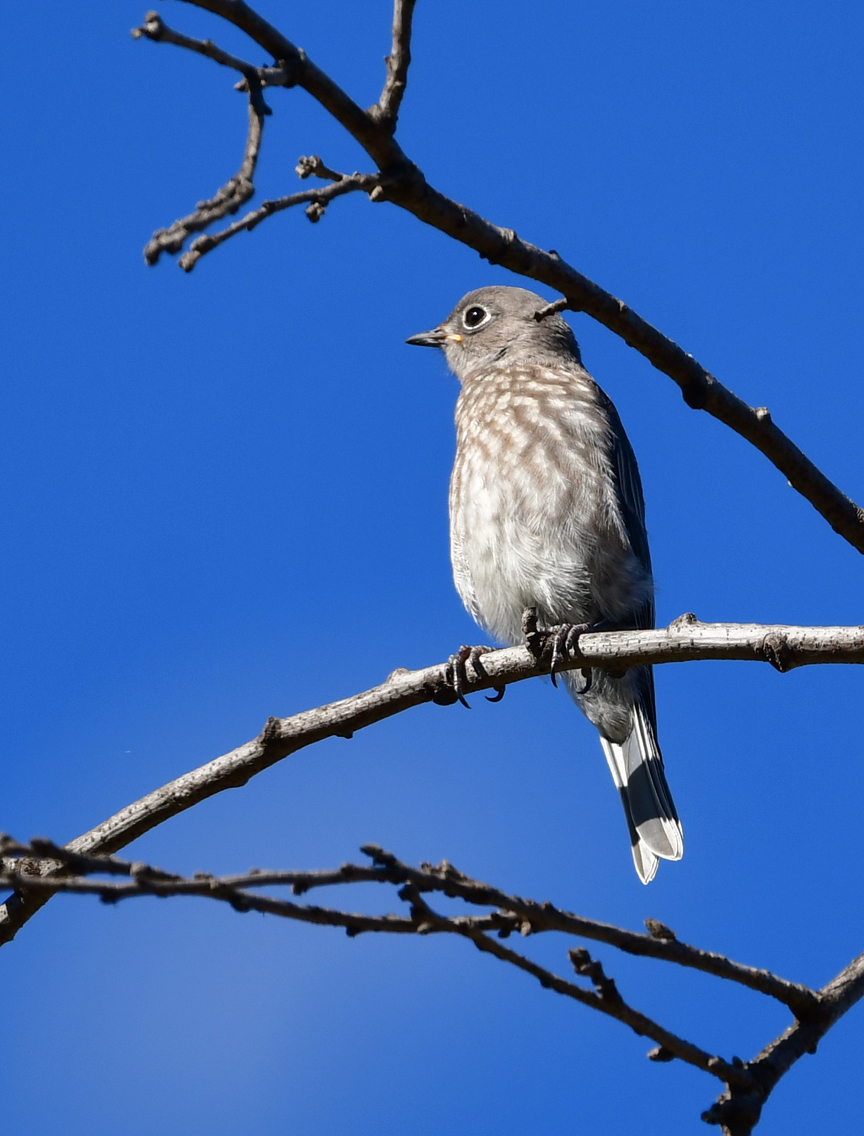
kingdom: Animalia
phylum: Chordata
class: Aves
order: Passeriformes
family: Turdidae
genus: Sialia
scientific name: Sialia mexicana
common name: Western bluebird
